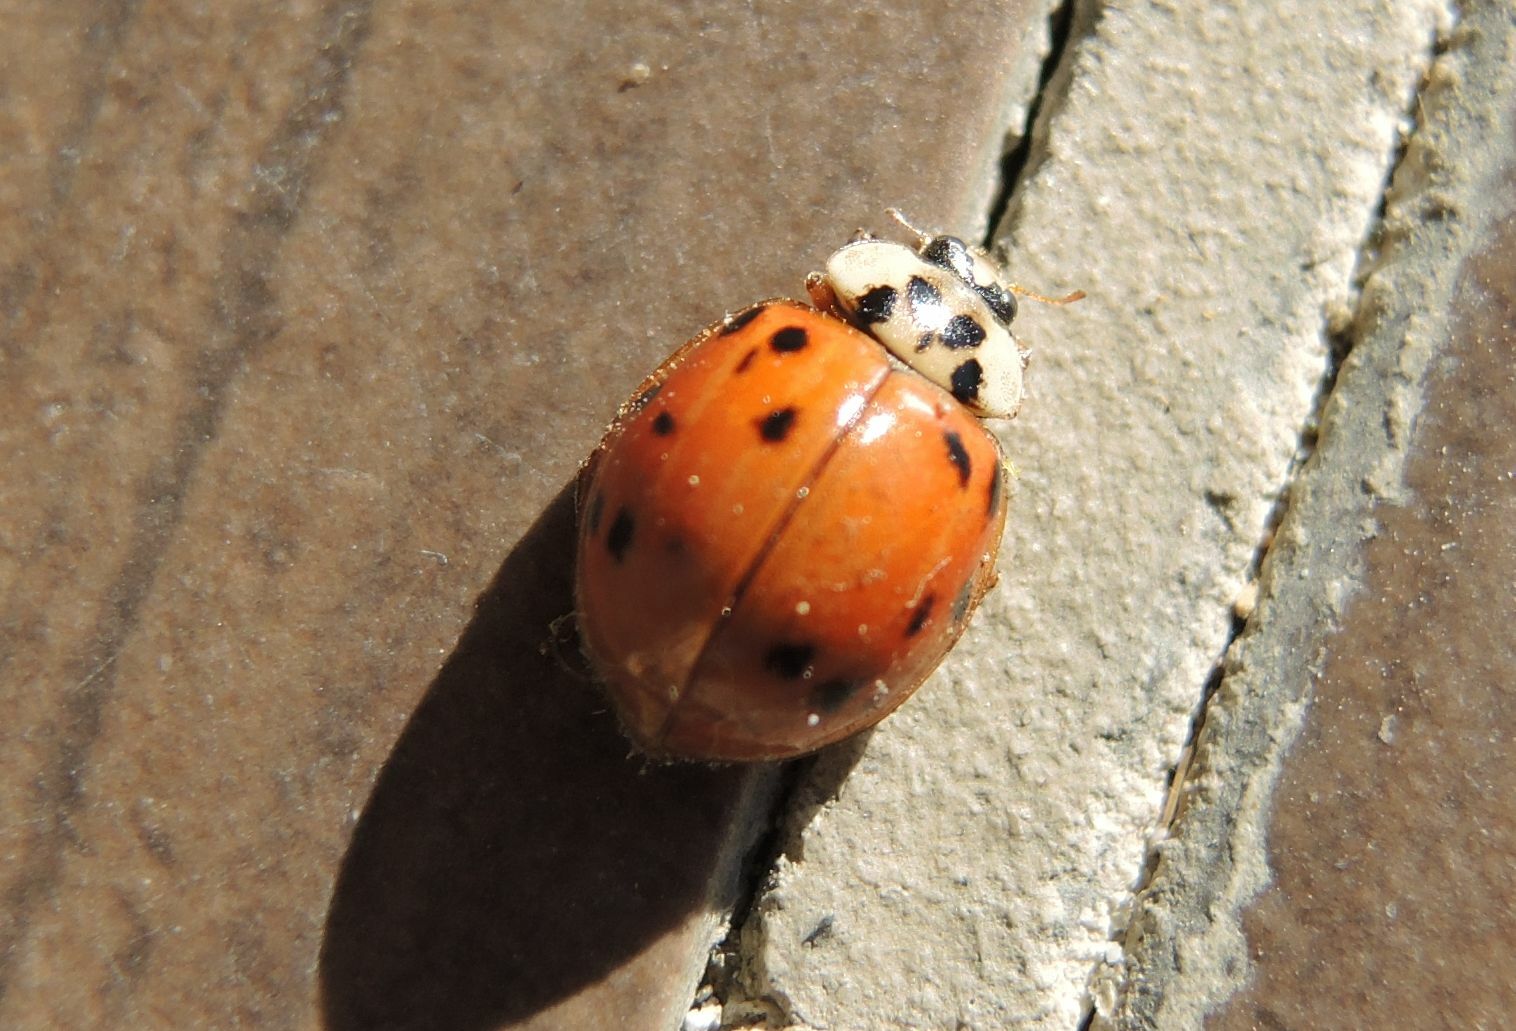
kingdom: Animalia
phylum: Arthropoda
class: Insecta
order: Coleoptera
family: Coccinellidae
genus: Harmonia
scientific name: Harmonia axyridis
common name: Harlequin ladybird
